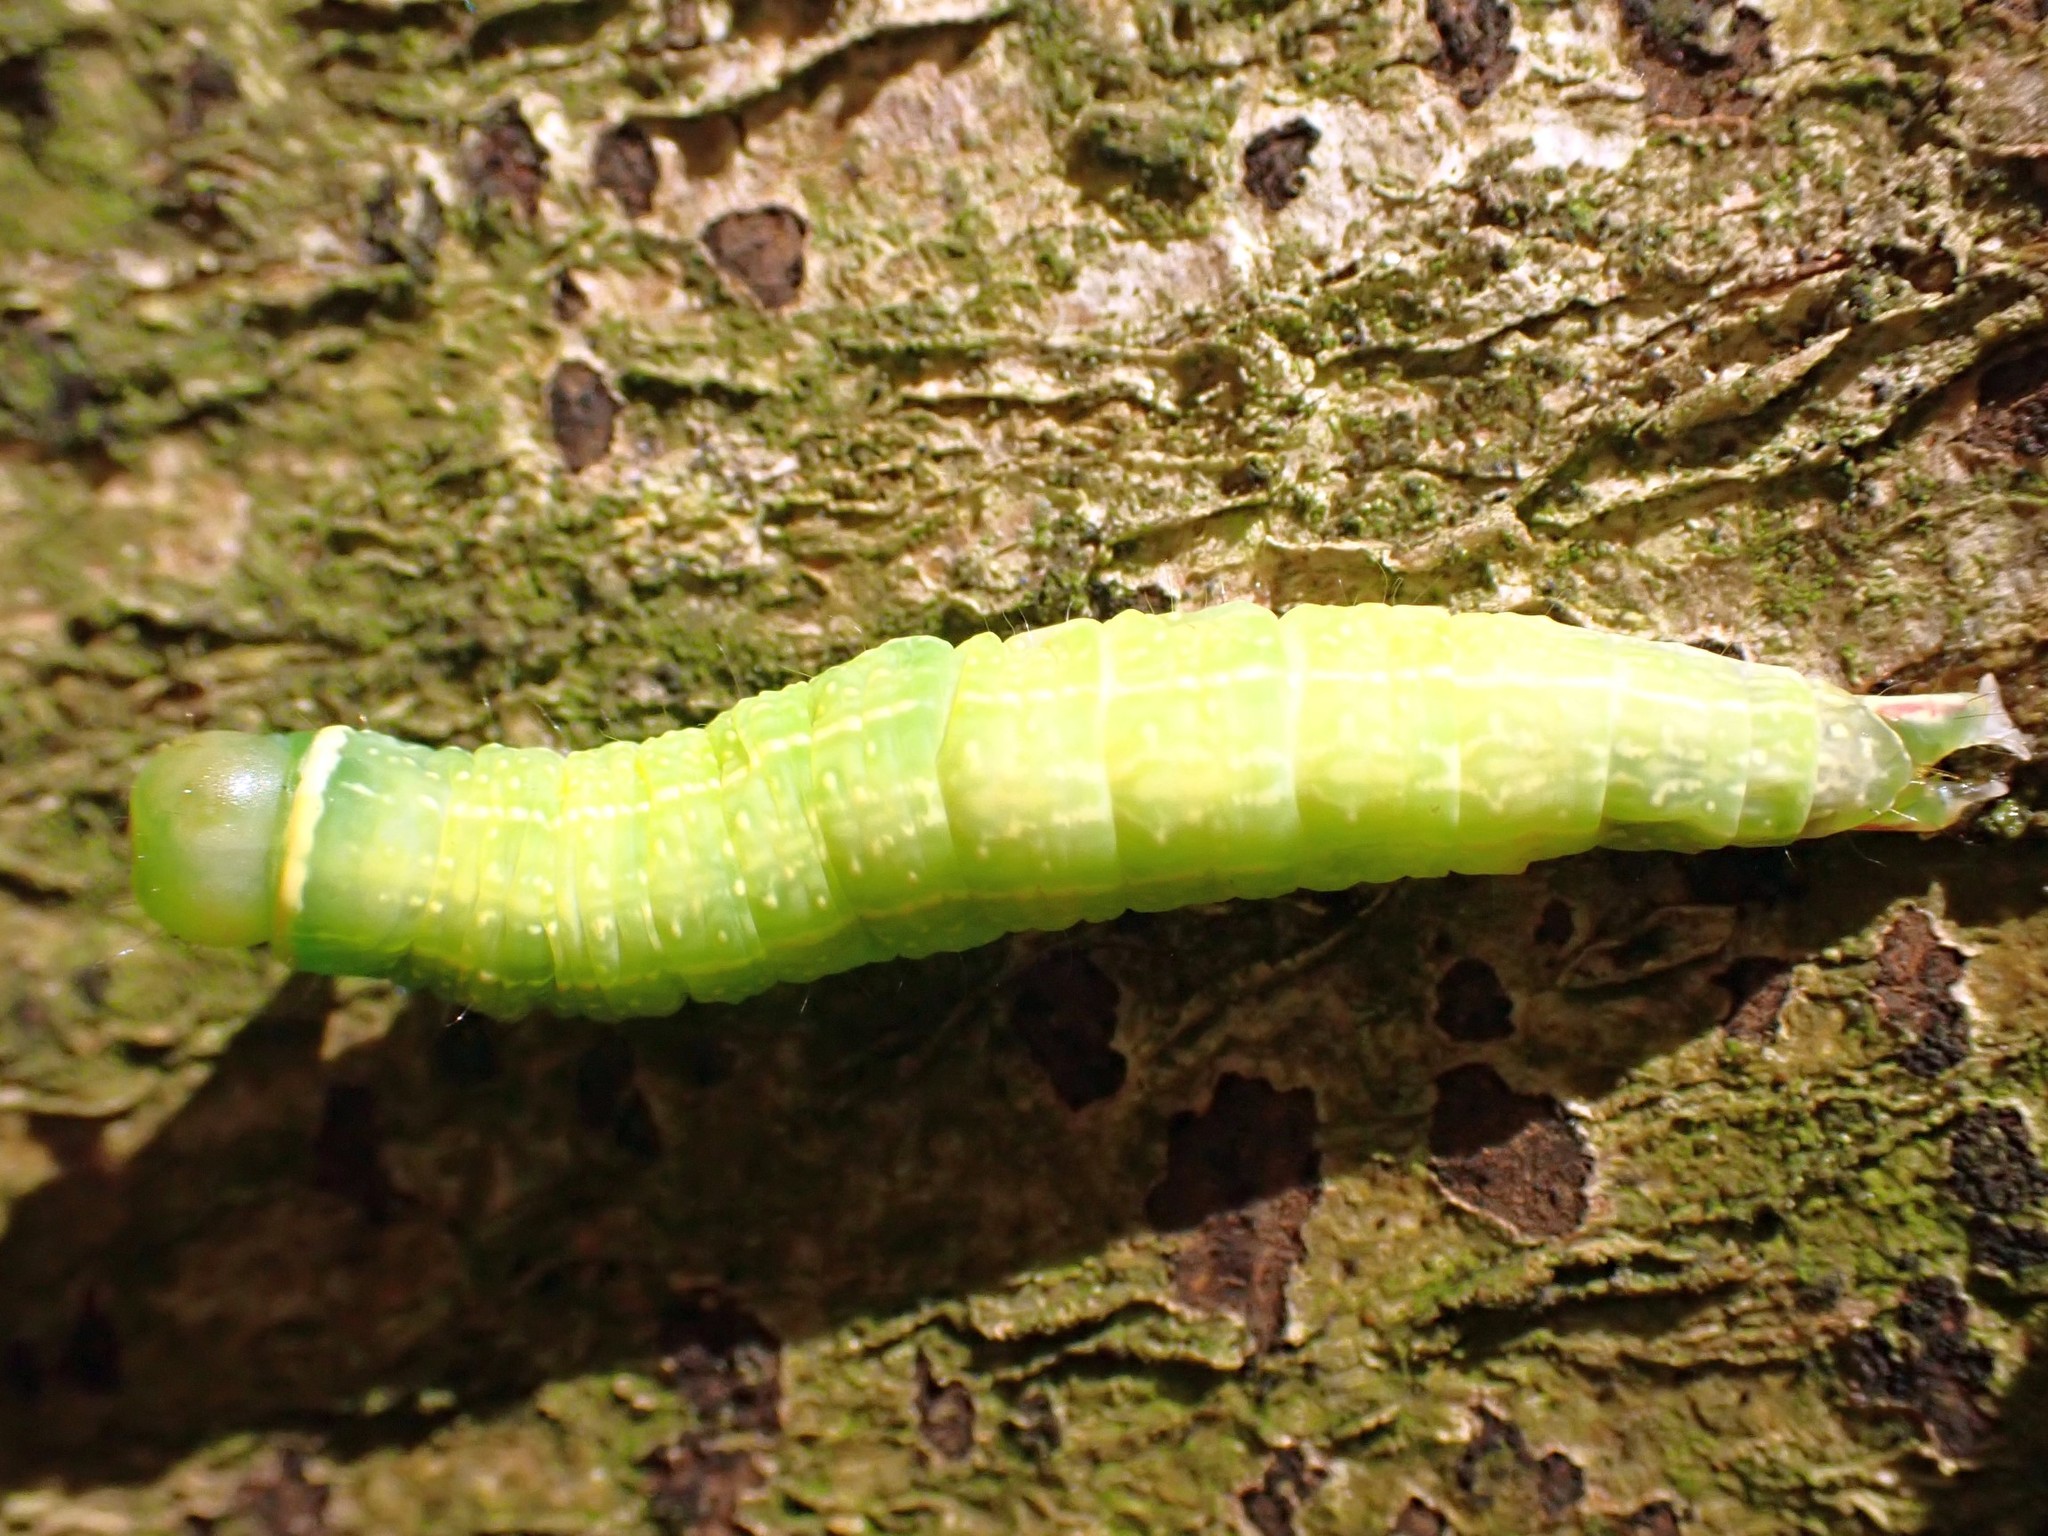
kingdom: Animalia
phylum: Arthropoda
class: Insecta
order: Lepidoptera
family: Nolidae
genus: Pseudoips
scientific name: Pseudoips prasinana
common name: Green silver-lines
